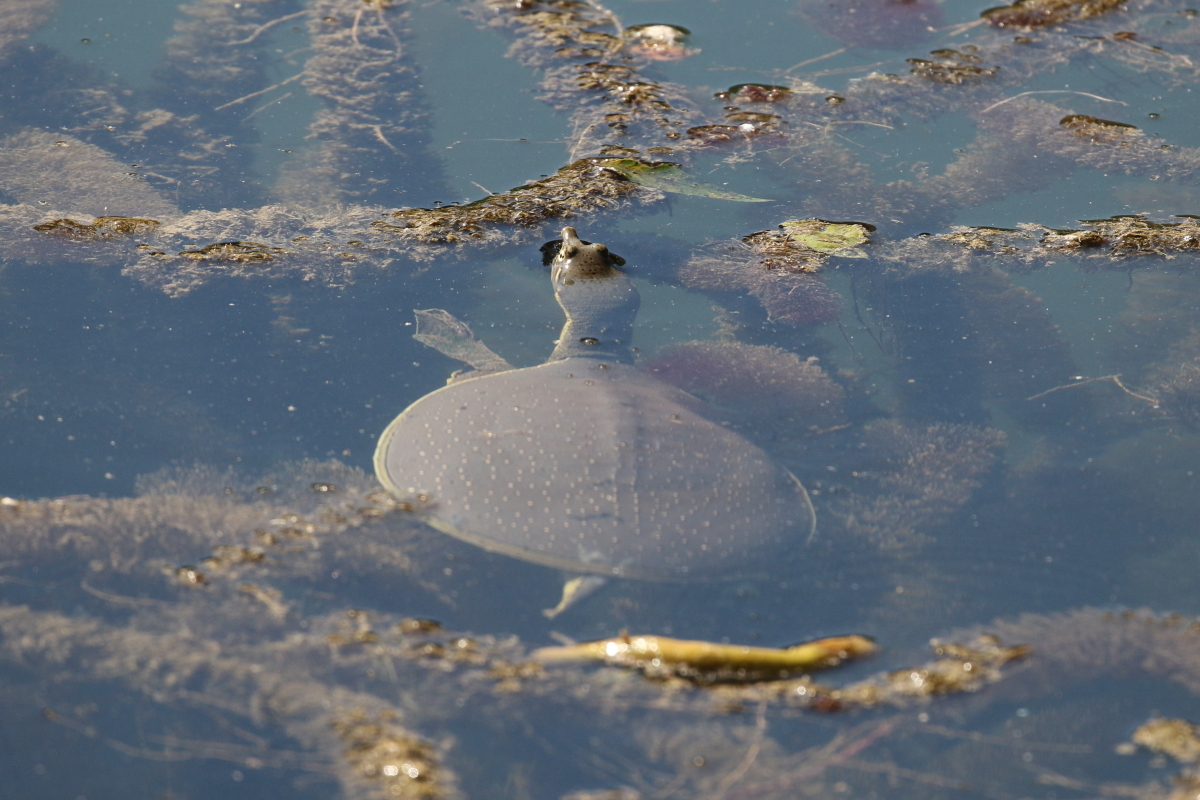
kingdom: Animalia
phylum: Chordata
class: Testudines
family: Trionychidae
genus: Apalone
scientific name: Apalone spinifera
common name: Spiny softshell turtle
